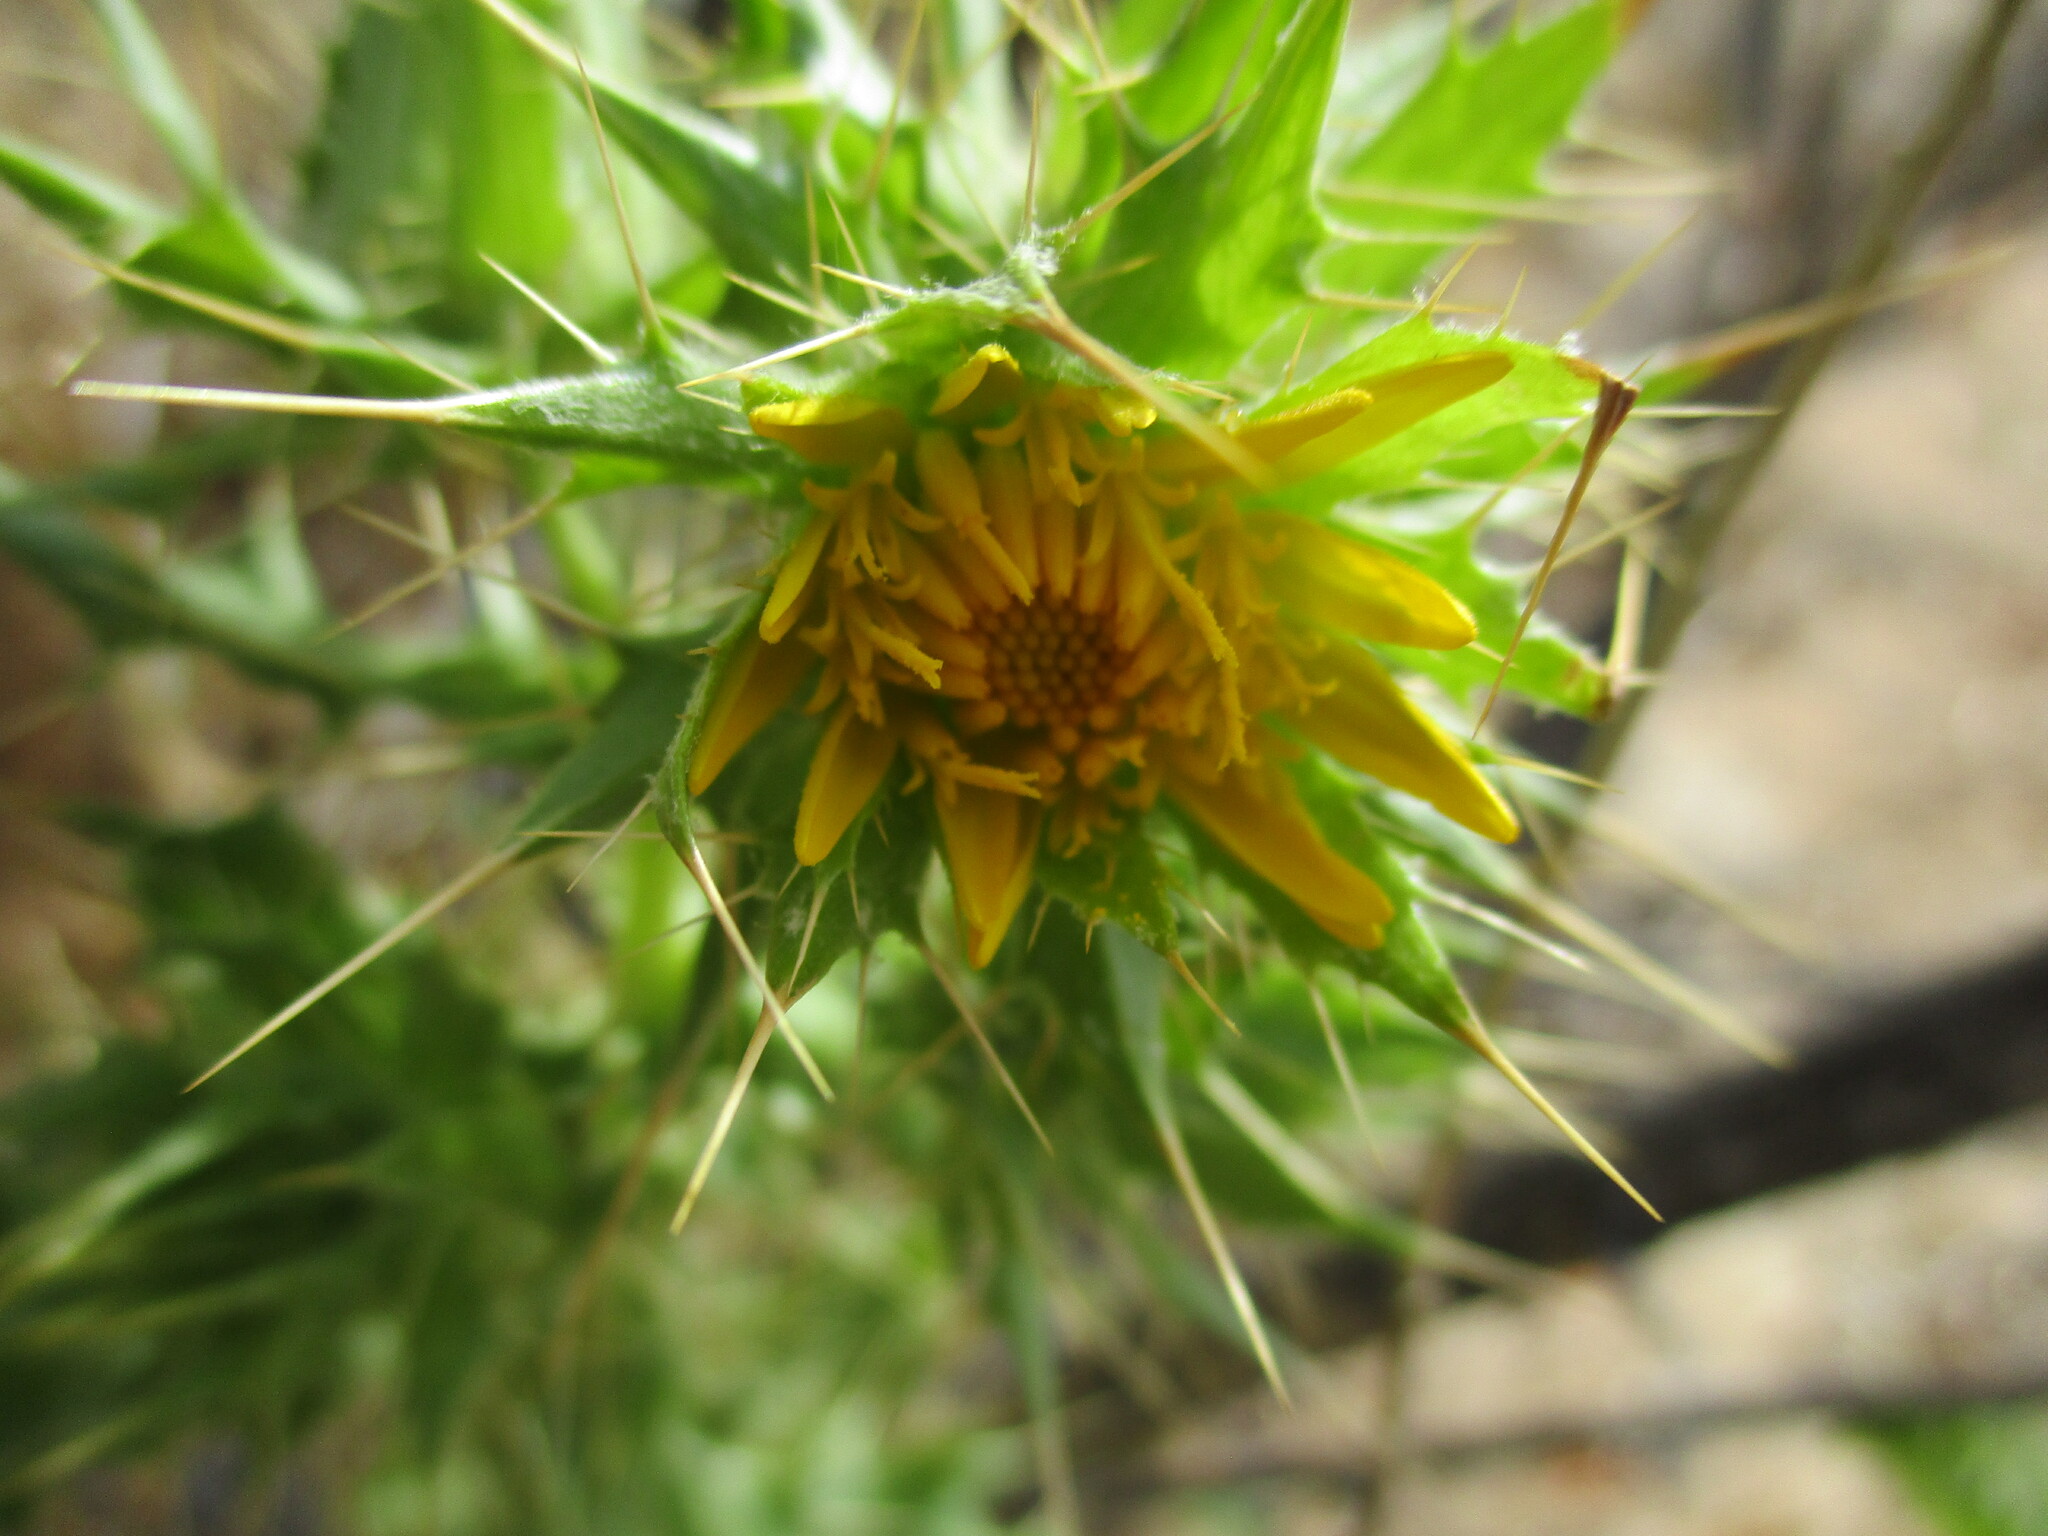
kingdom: Plantae
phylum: Tracheophyta
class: Magnoliopsida
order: Asterales
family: Asteraceae
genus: Berkheya
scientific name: Berkheya spinosissima
